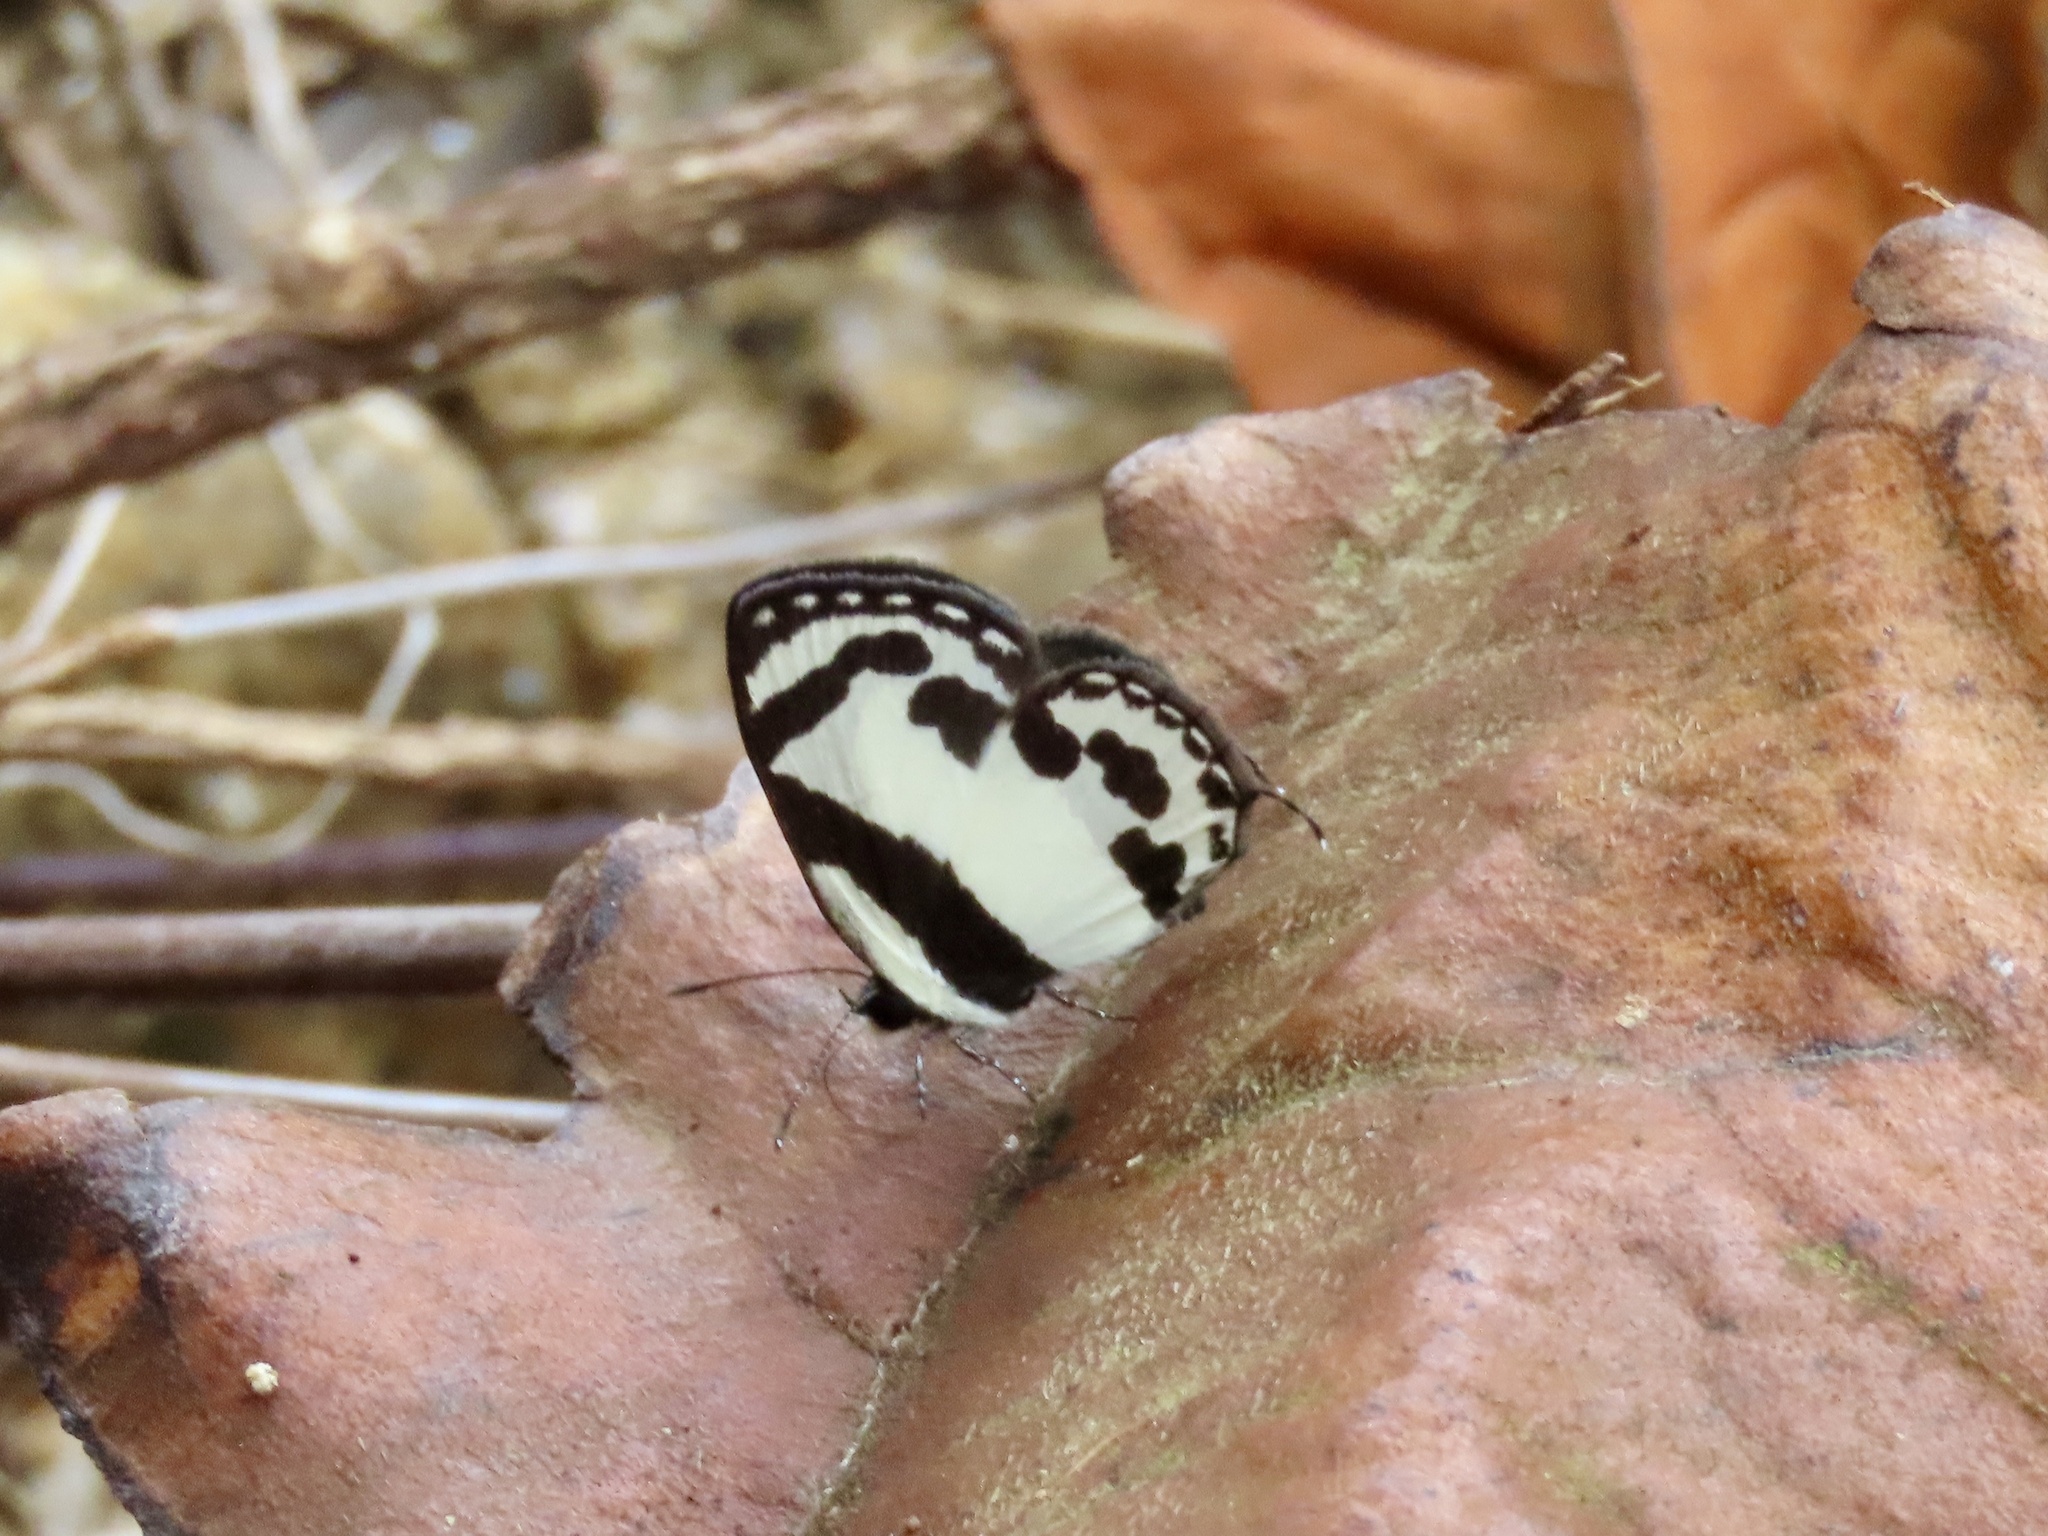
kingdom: Animalia
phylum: Arthropoda
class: Insecta
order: Lepidoptera
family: Lycaenidae
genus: Caleta
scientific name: Caleta roxus
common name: Straight pierrot
